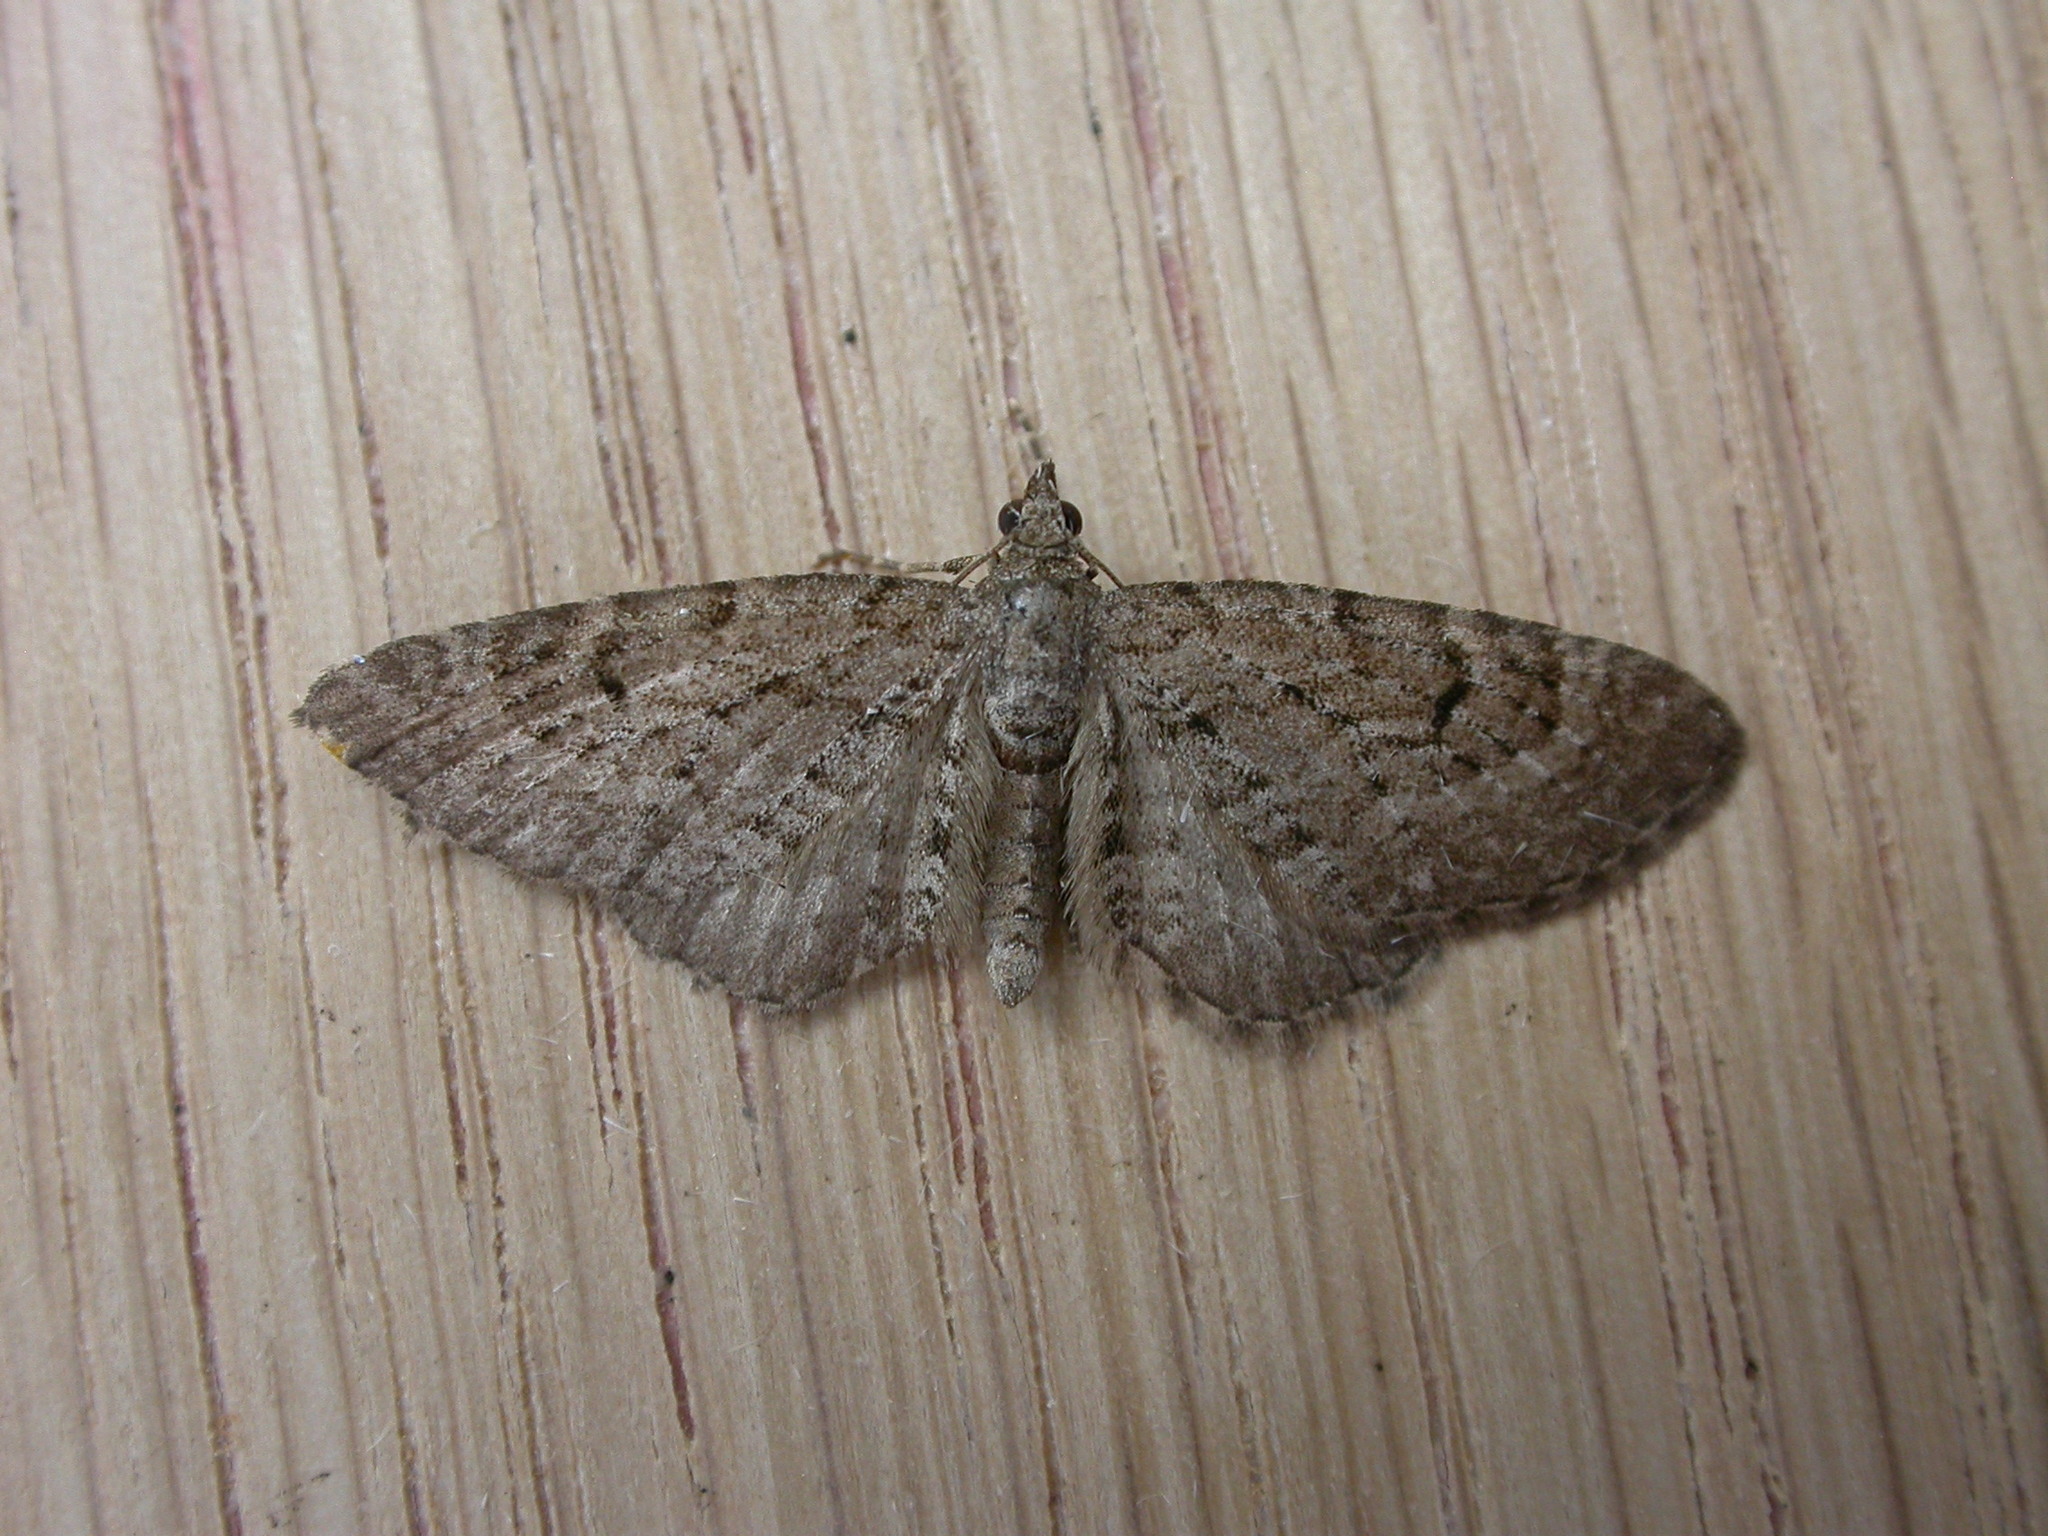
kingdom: Animalia
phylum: Arthropoda
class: Insecta
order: Lepidoptera
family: Geometridae
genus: Eupithecia
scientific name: Eupithecia intricata
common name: Freyers pug
